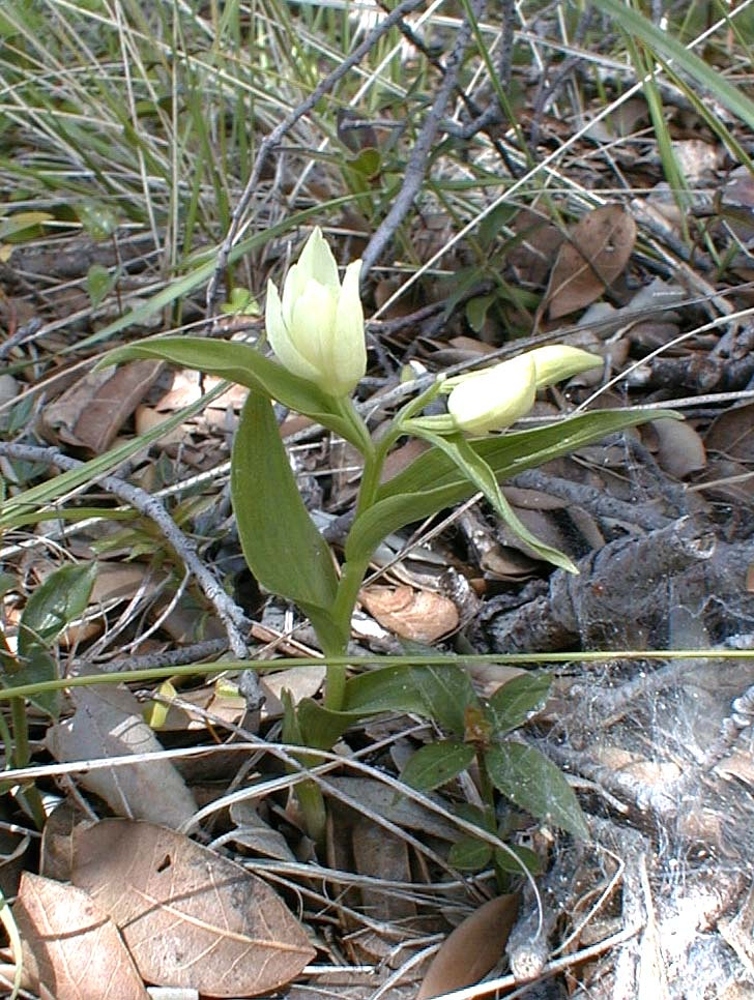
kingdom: Plantae
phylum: Tracheophyta
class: Liliopsida
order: Asparagales
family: Orchidaceae
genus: Cephalanthera
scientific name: Cephalanthera damasonium
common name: White helleborine
